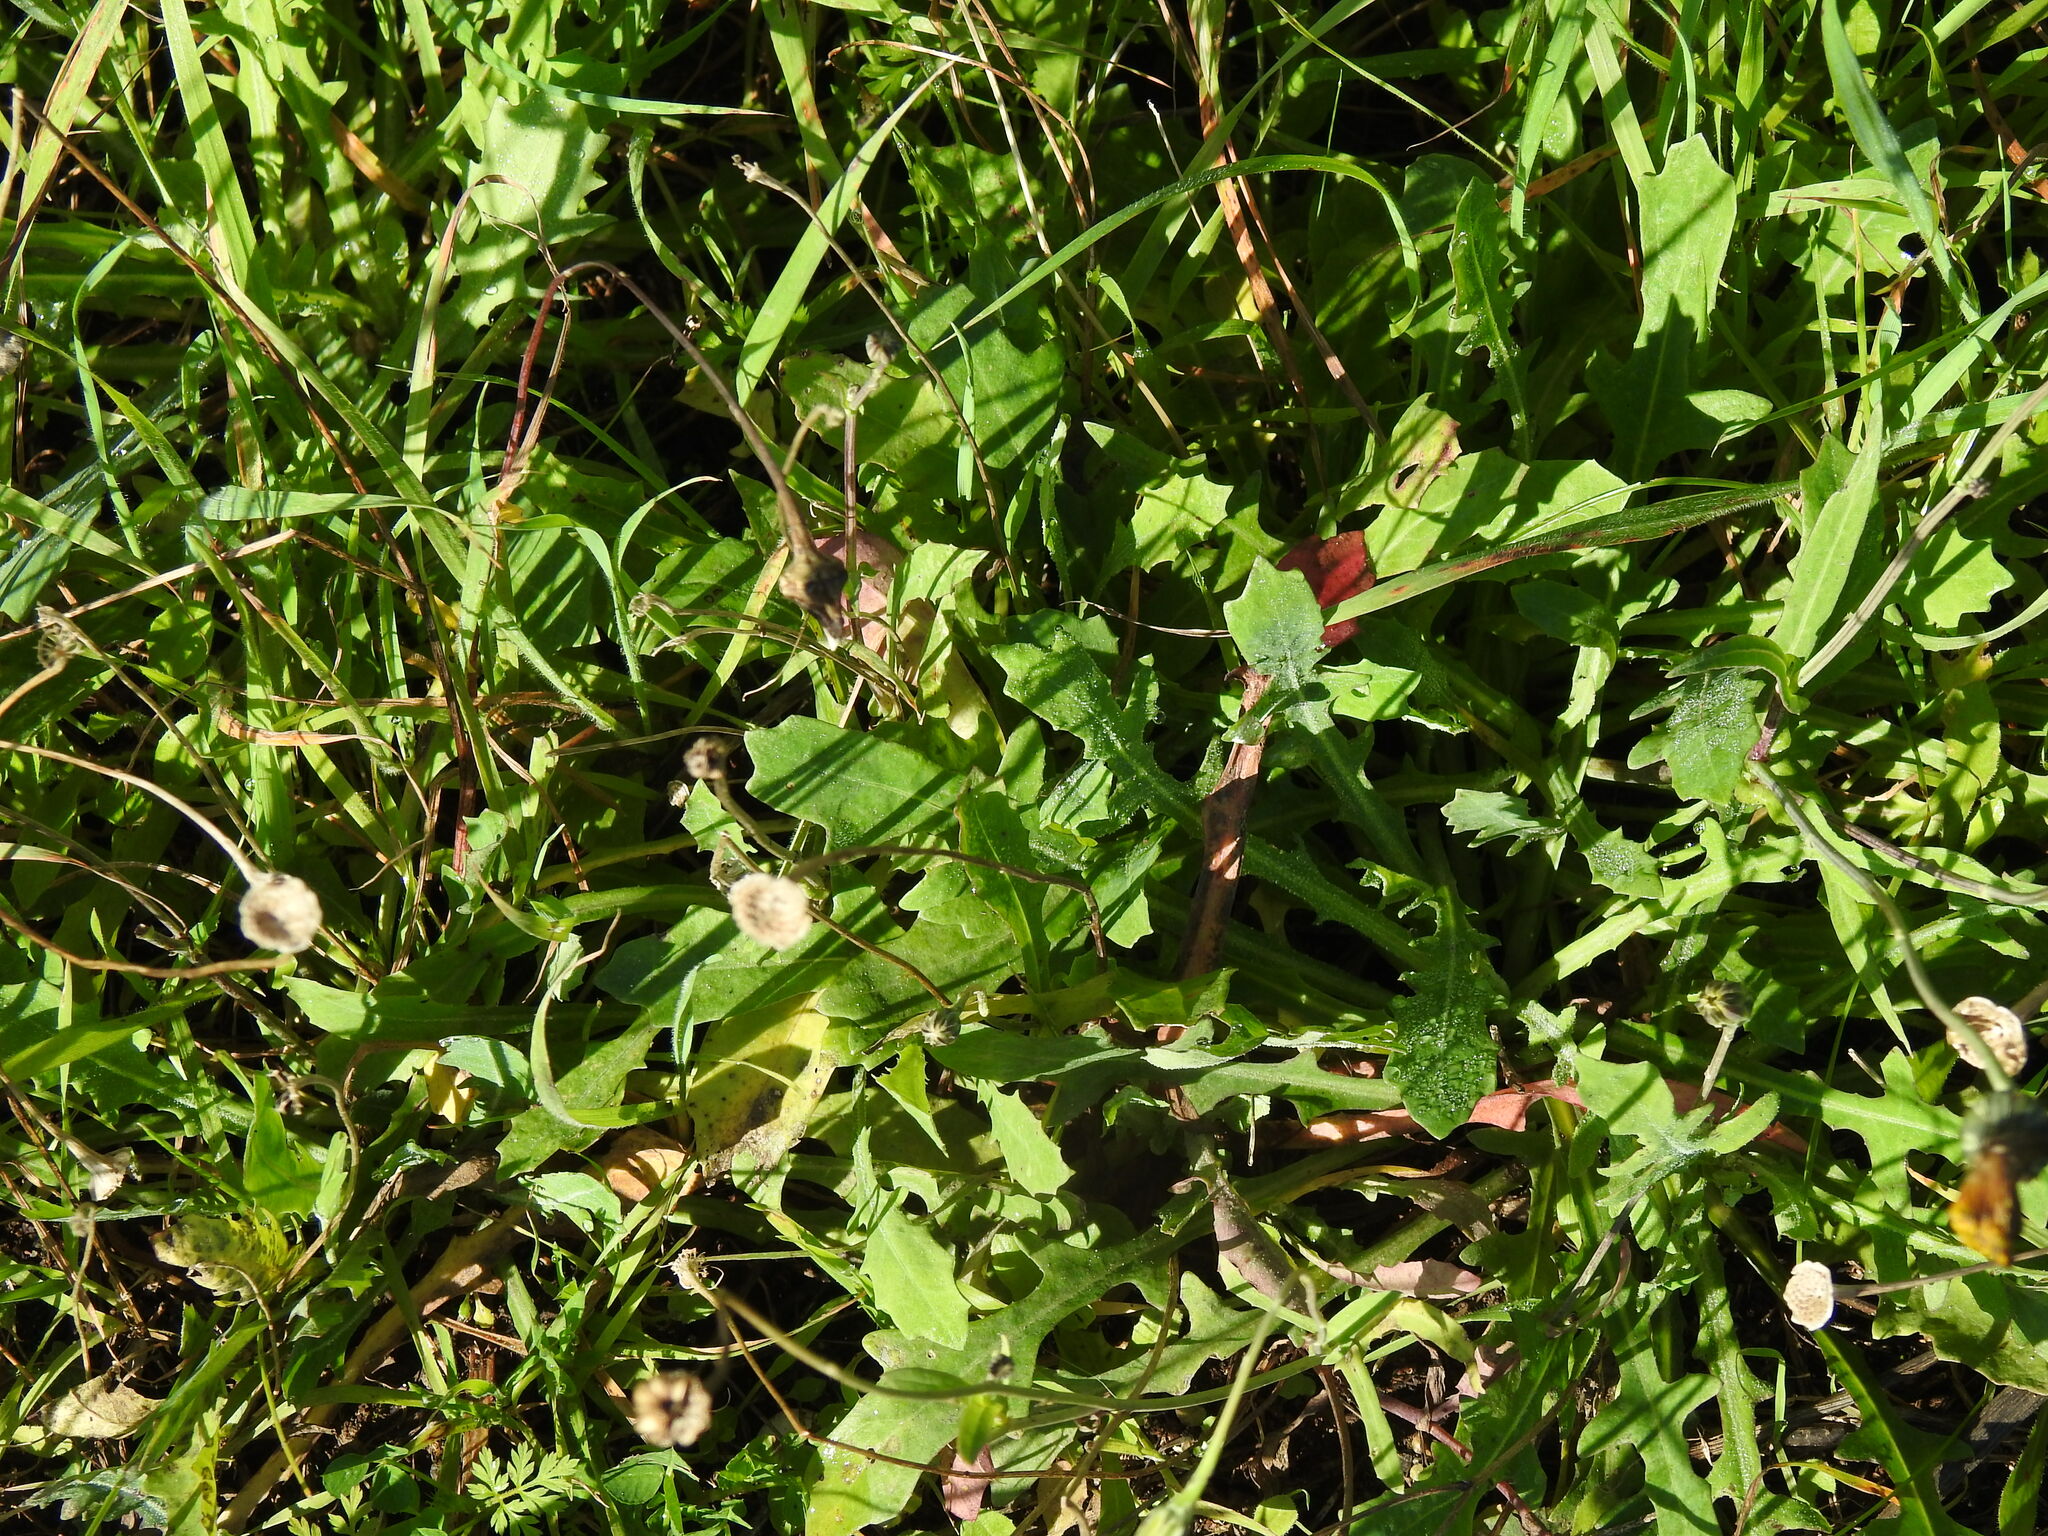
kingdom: Plantae
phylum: Tracheophyta
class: Magnoliopsida
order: Asterales
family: Asteraceae
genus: Reichardia
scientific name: Reichardia picroides
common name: Common brighteyes
